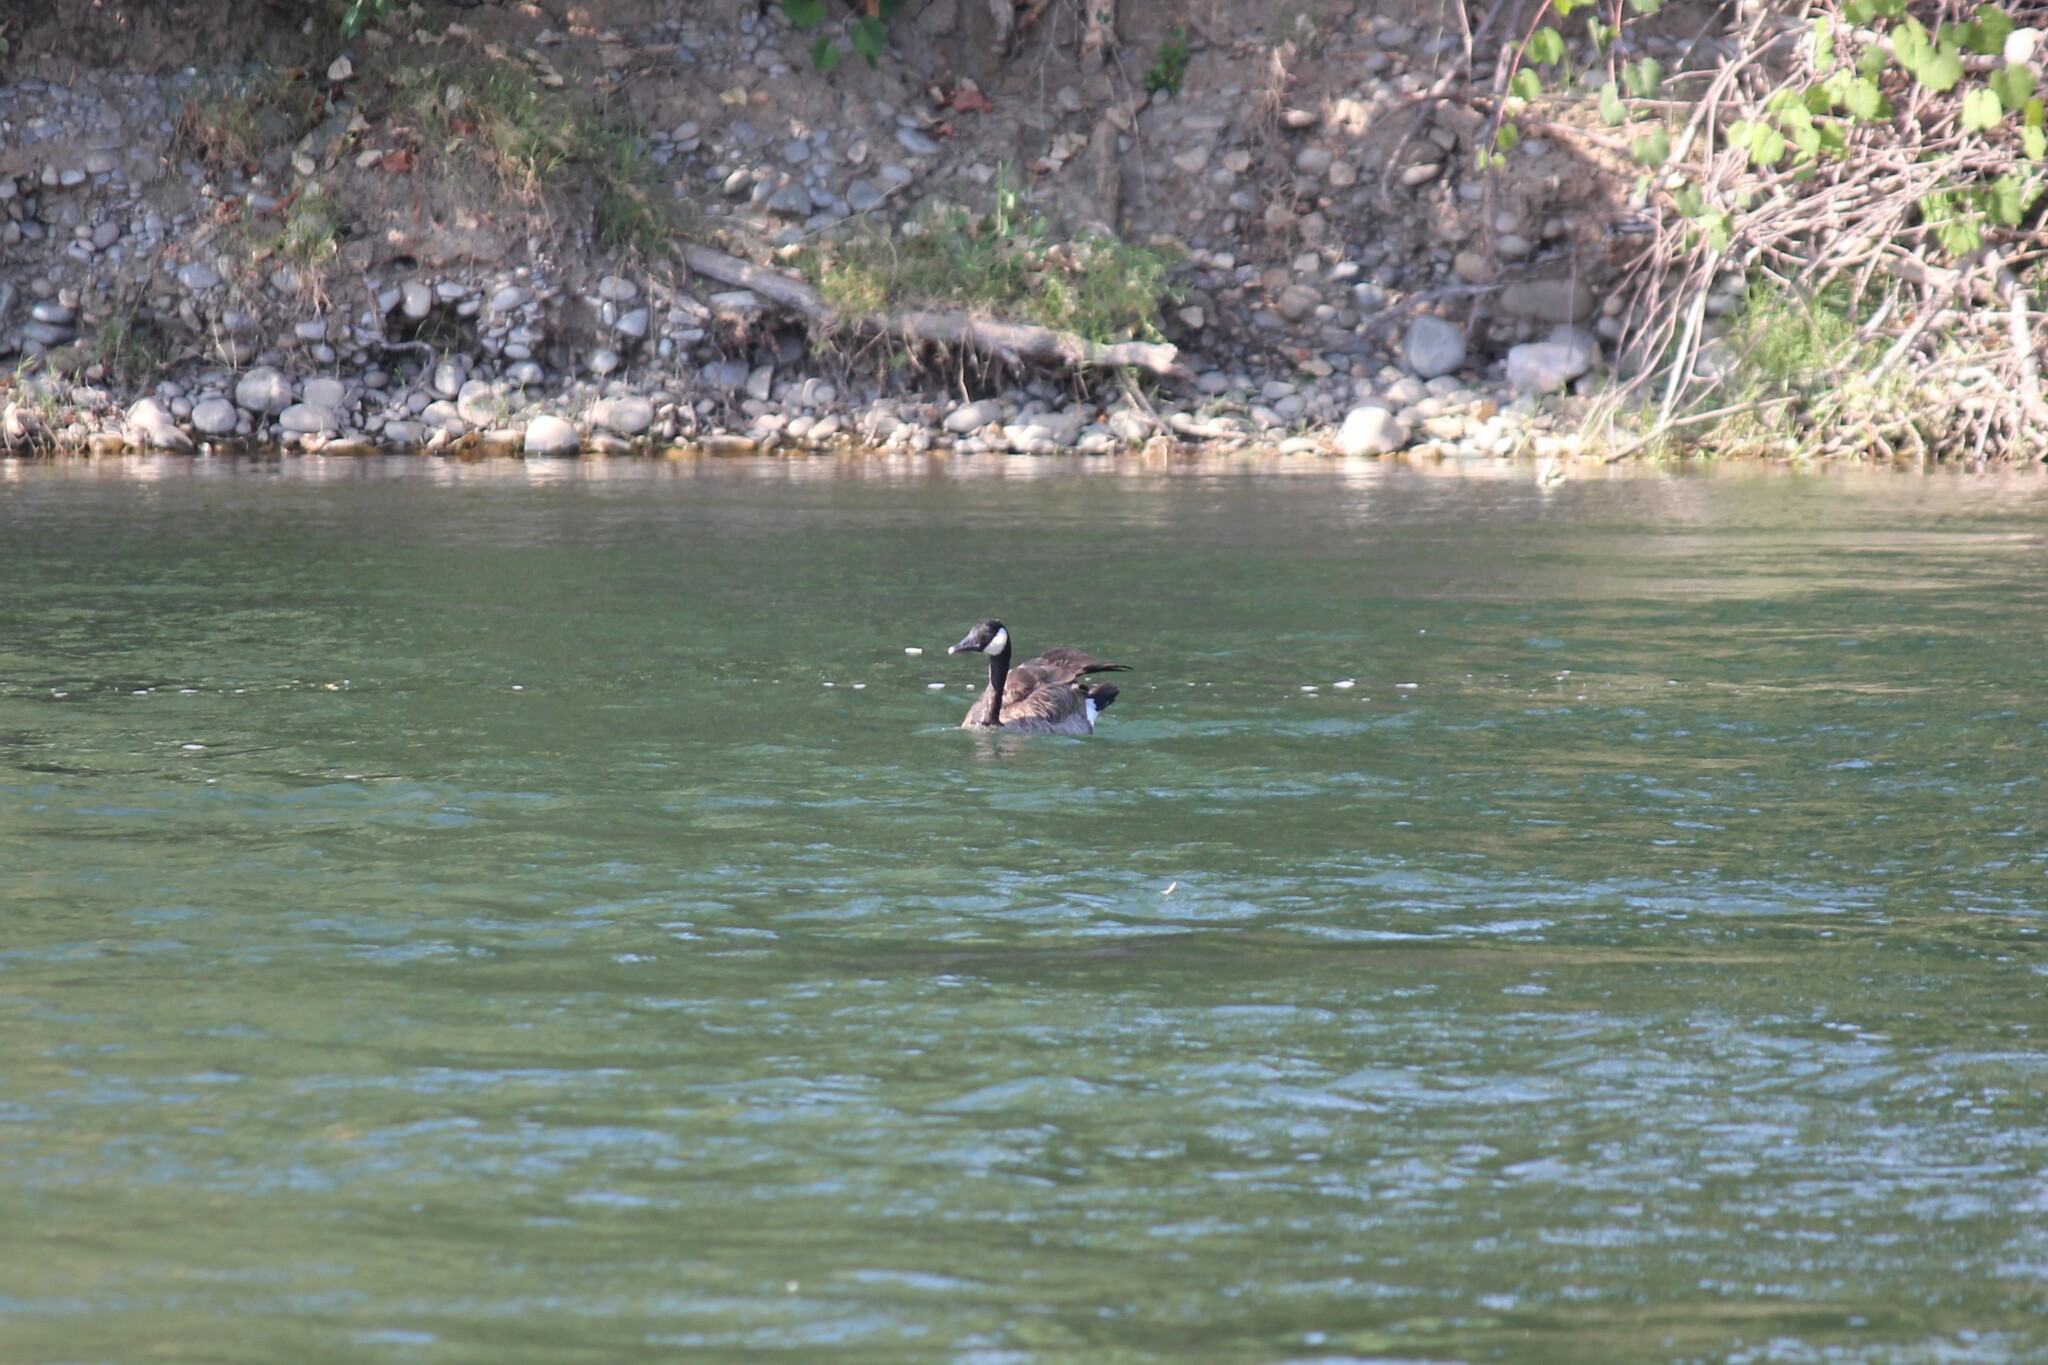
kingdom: Animalia
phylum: Chordata
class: Aves
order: Anseriformes
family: Anatidae
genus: Branta
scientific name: Branta canadensis
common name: Canada goose
